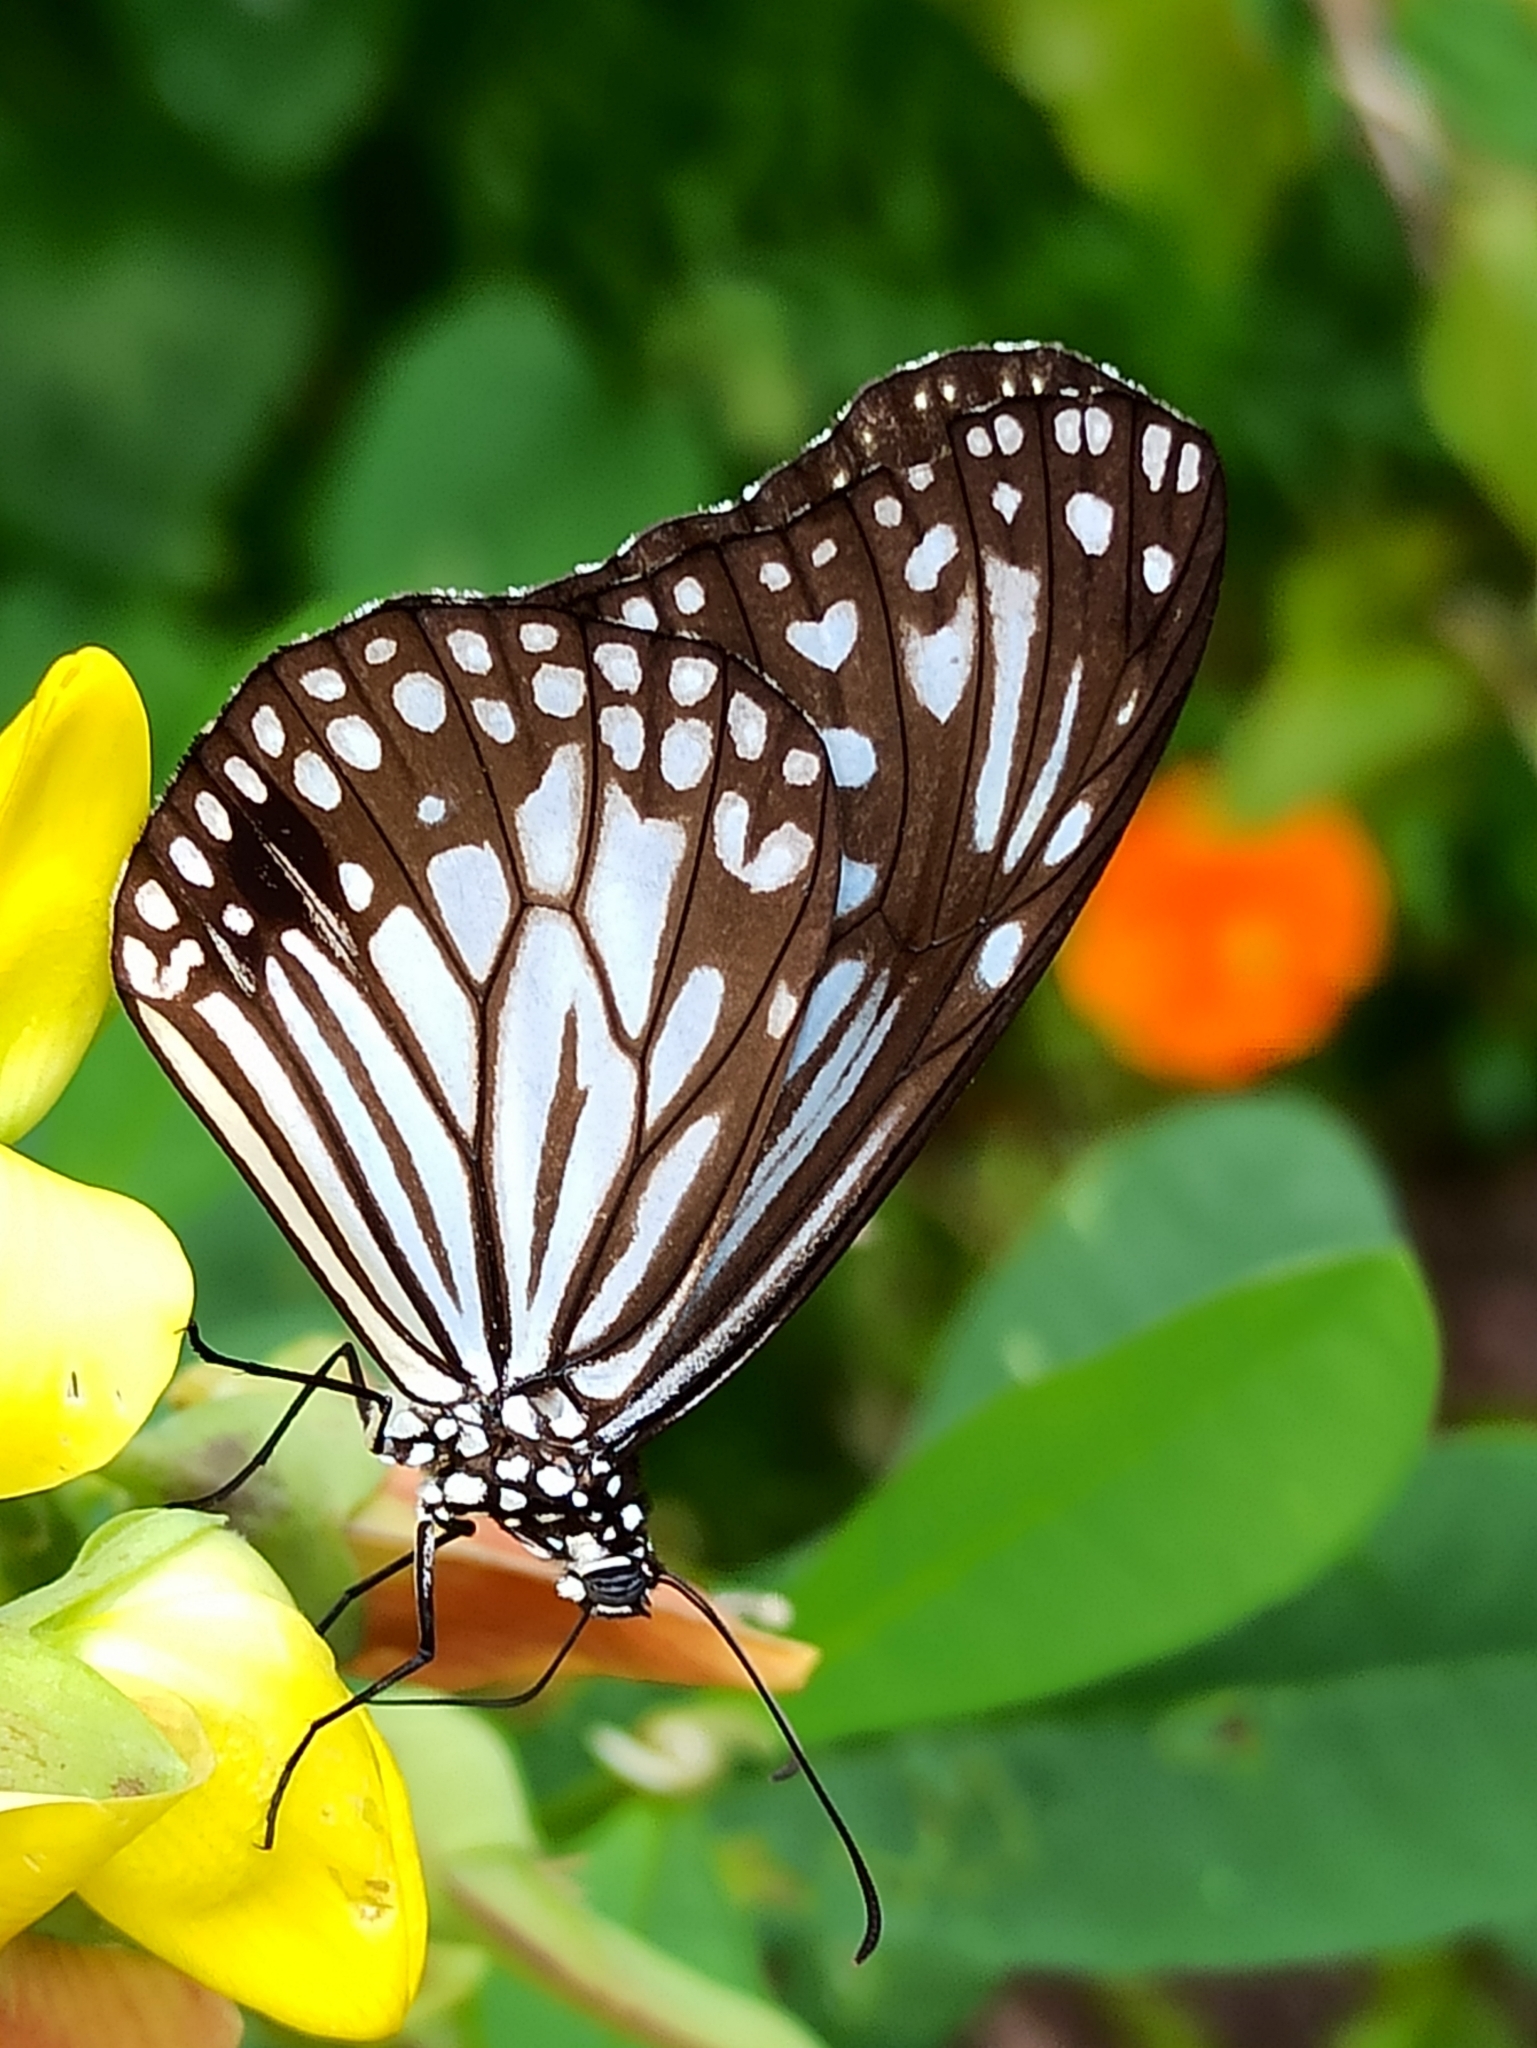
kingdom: Animalia
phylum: Arthropoda
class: Insecta
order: Lepidoptera
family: Nymphalidae
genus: Parantica
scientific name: Parantica aglea
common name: Glassy tiger
